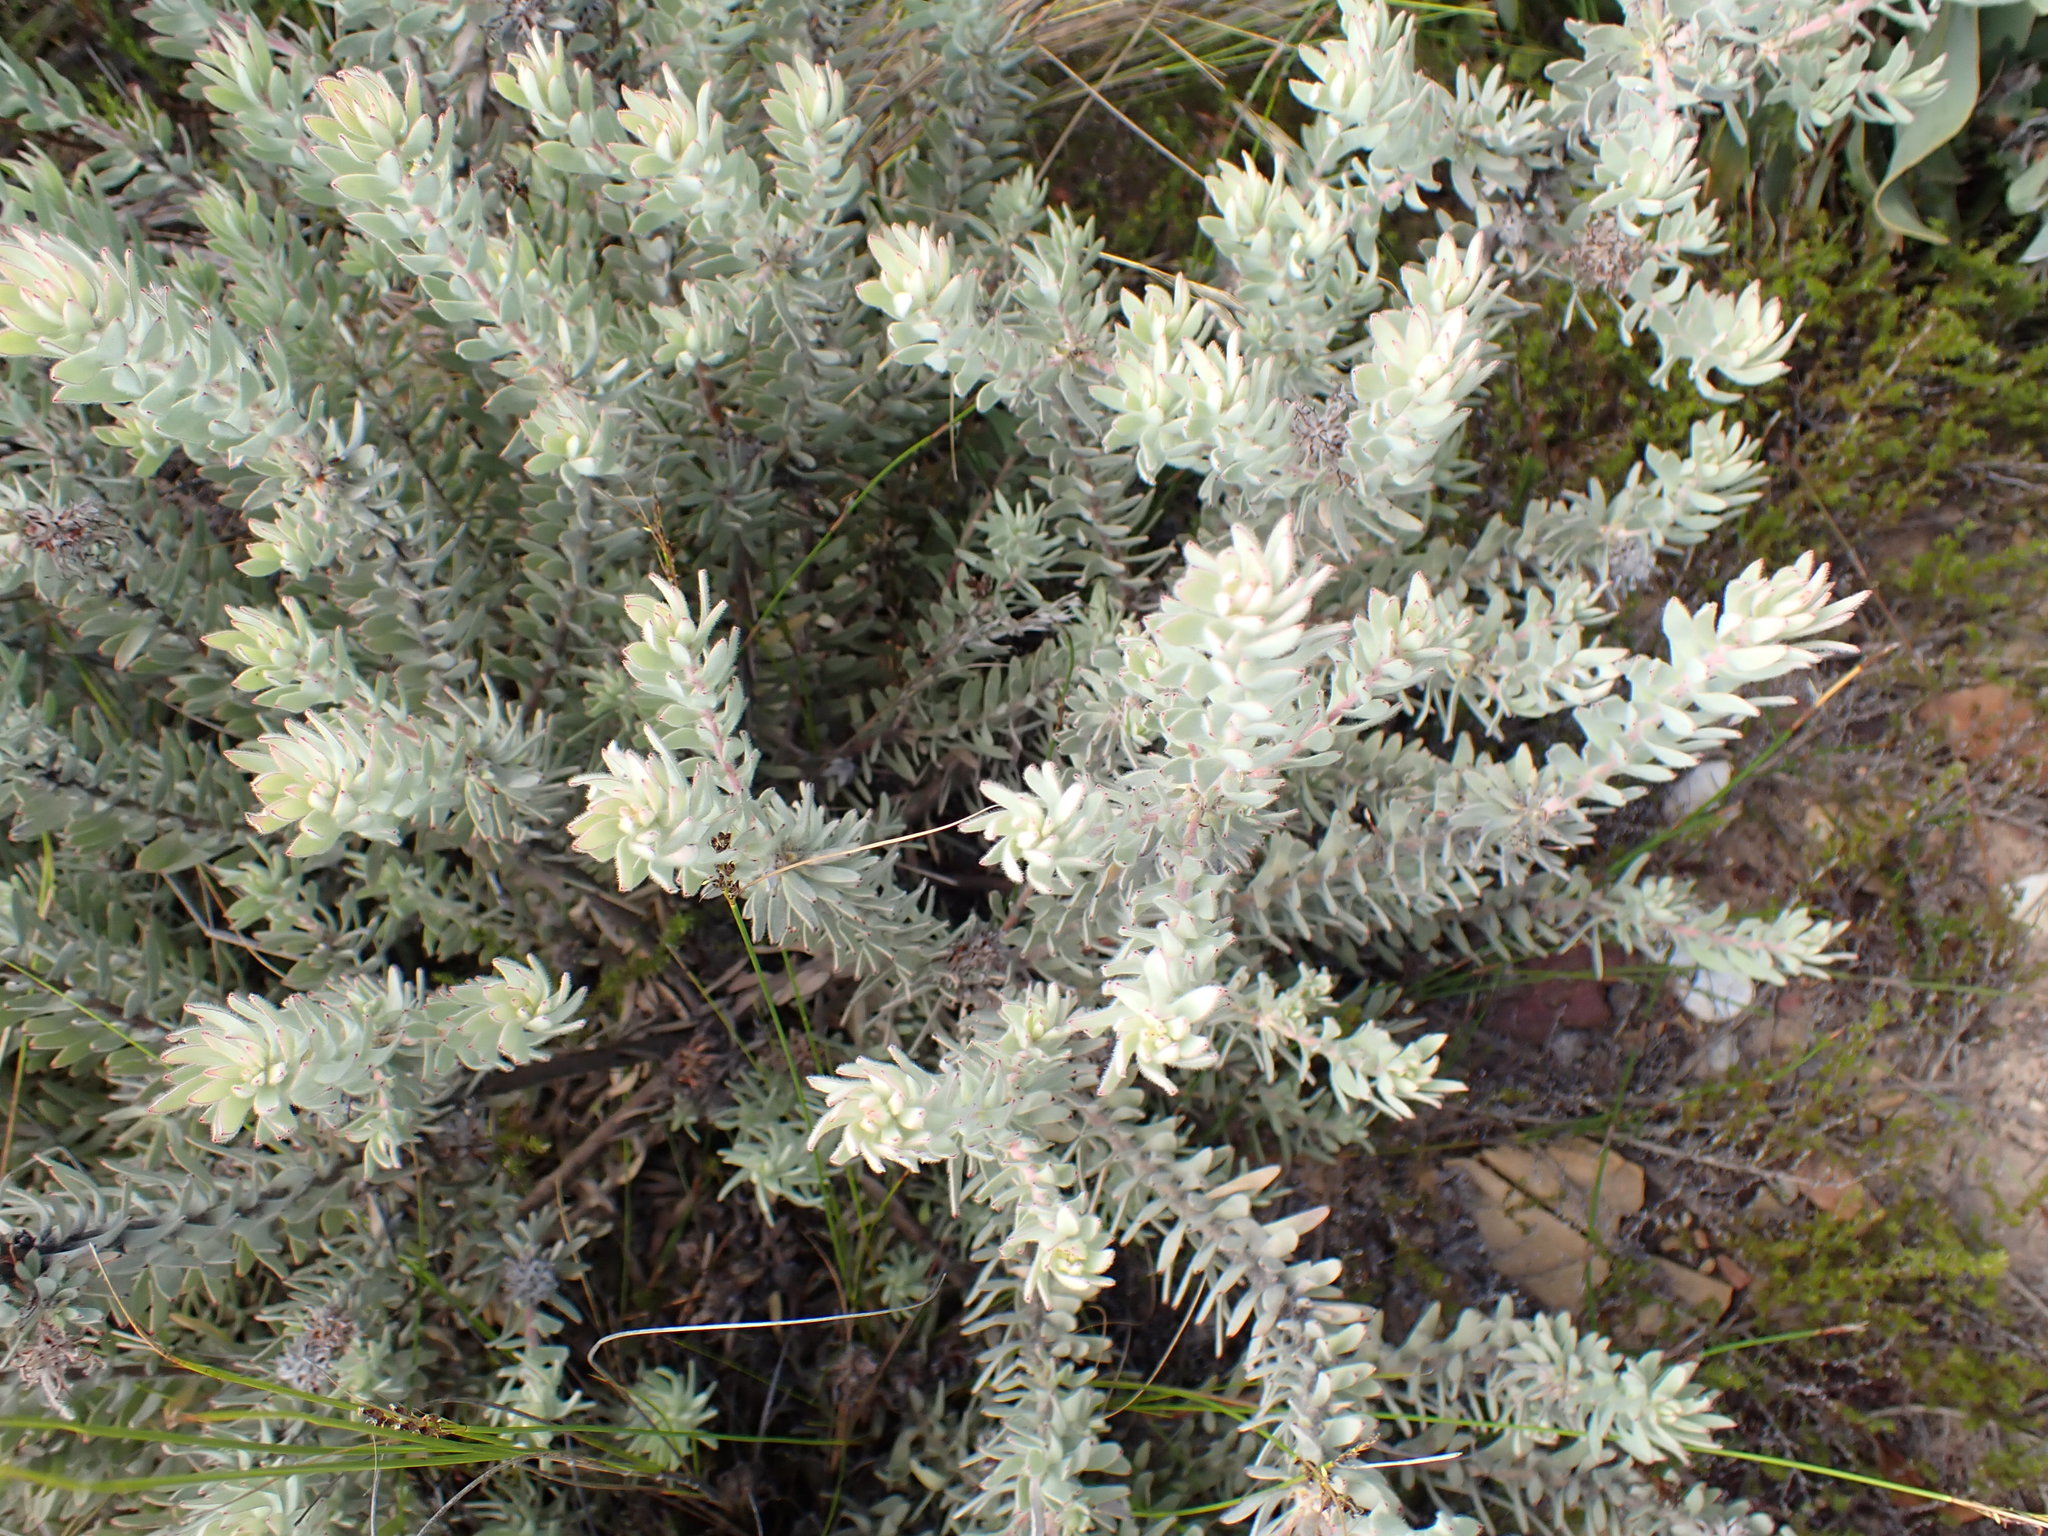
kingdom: Plantae
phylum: Tracheophyta
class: Magnoliopsida
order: Proteales
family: Proteaceae
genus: Leucospermum
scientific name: Leucospermum wittebergense
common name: Swartberg pincushion
